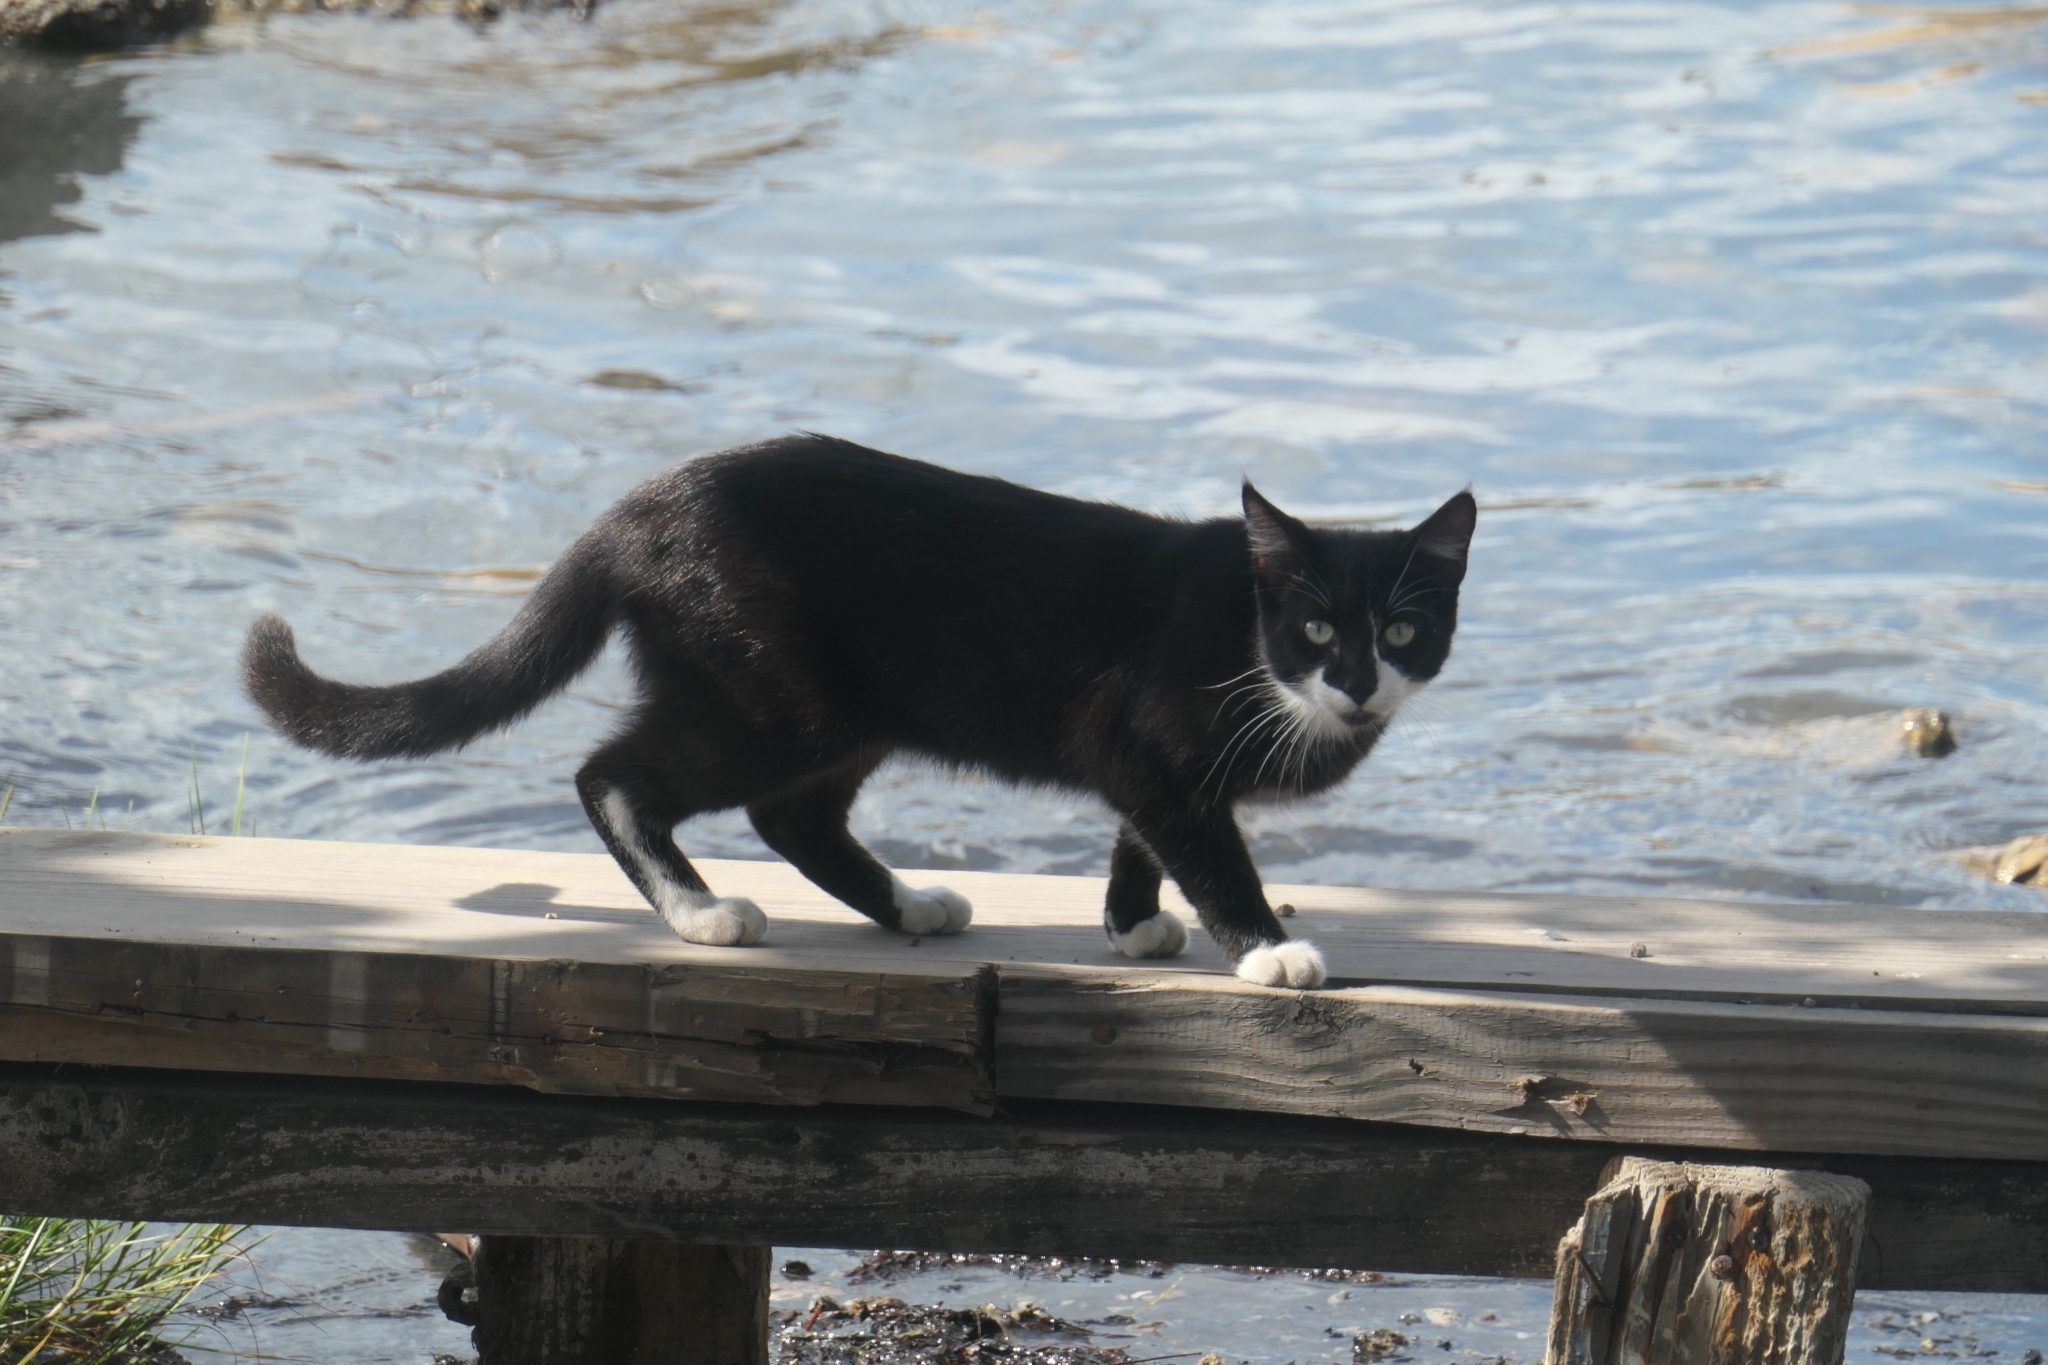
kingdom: Animalia
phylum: Chordata
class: Mammalia
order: Carnivora
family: Felidae
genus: Felis
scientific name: Felis catus
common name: Domestic cat
